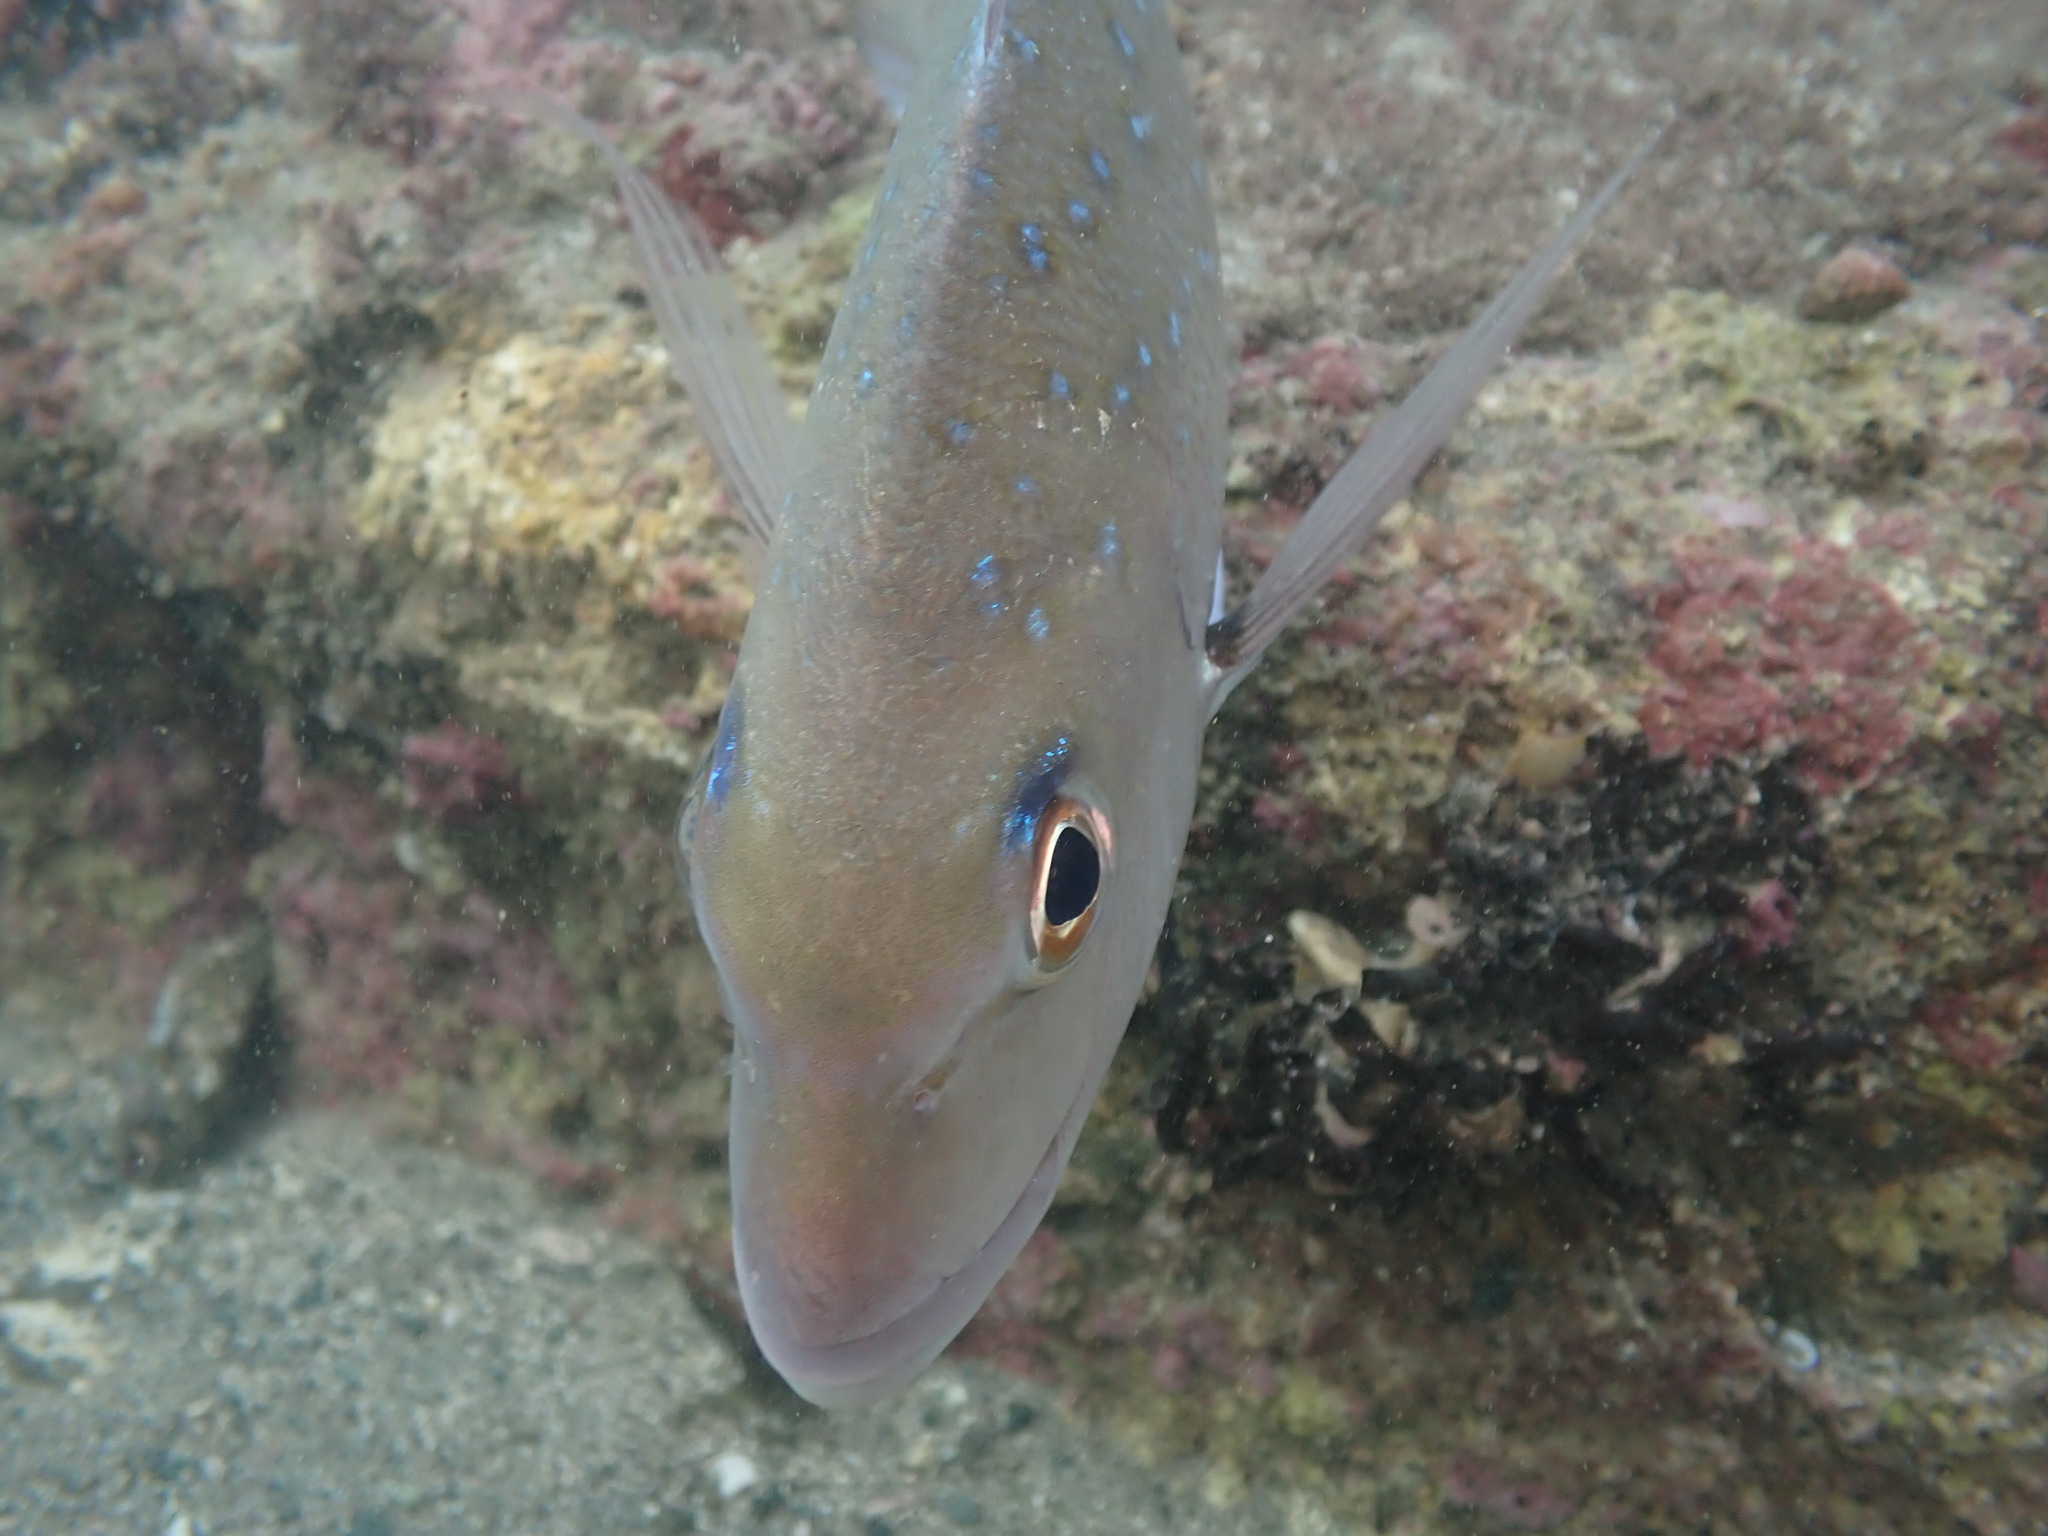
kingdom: Animalia
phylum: Chordata
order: Perciformes
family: Sparidae
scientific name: Sparidae
